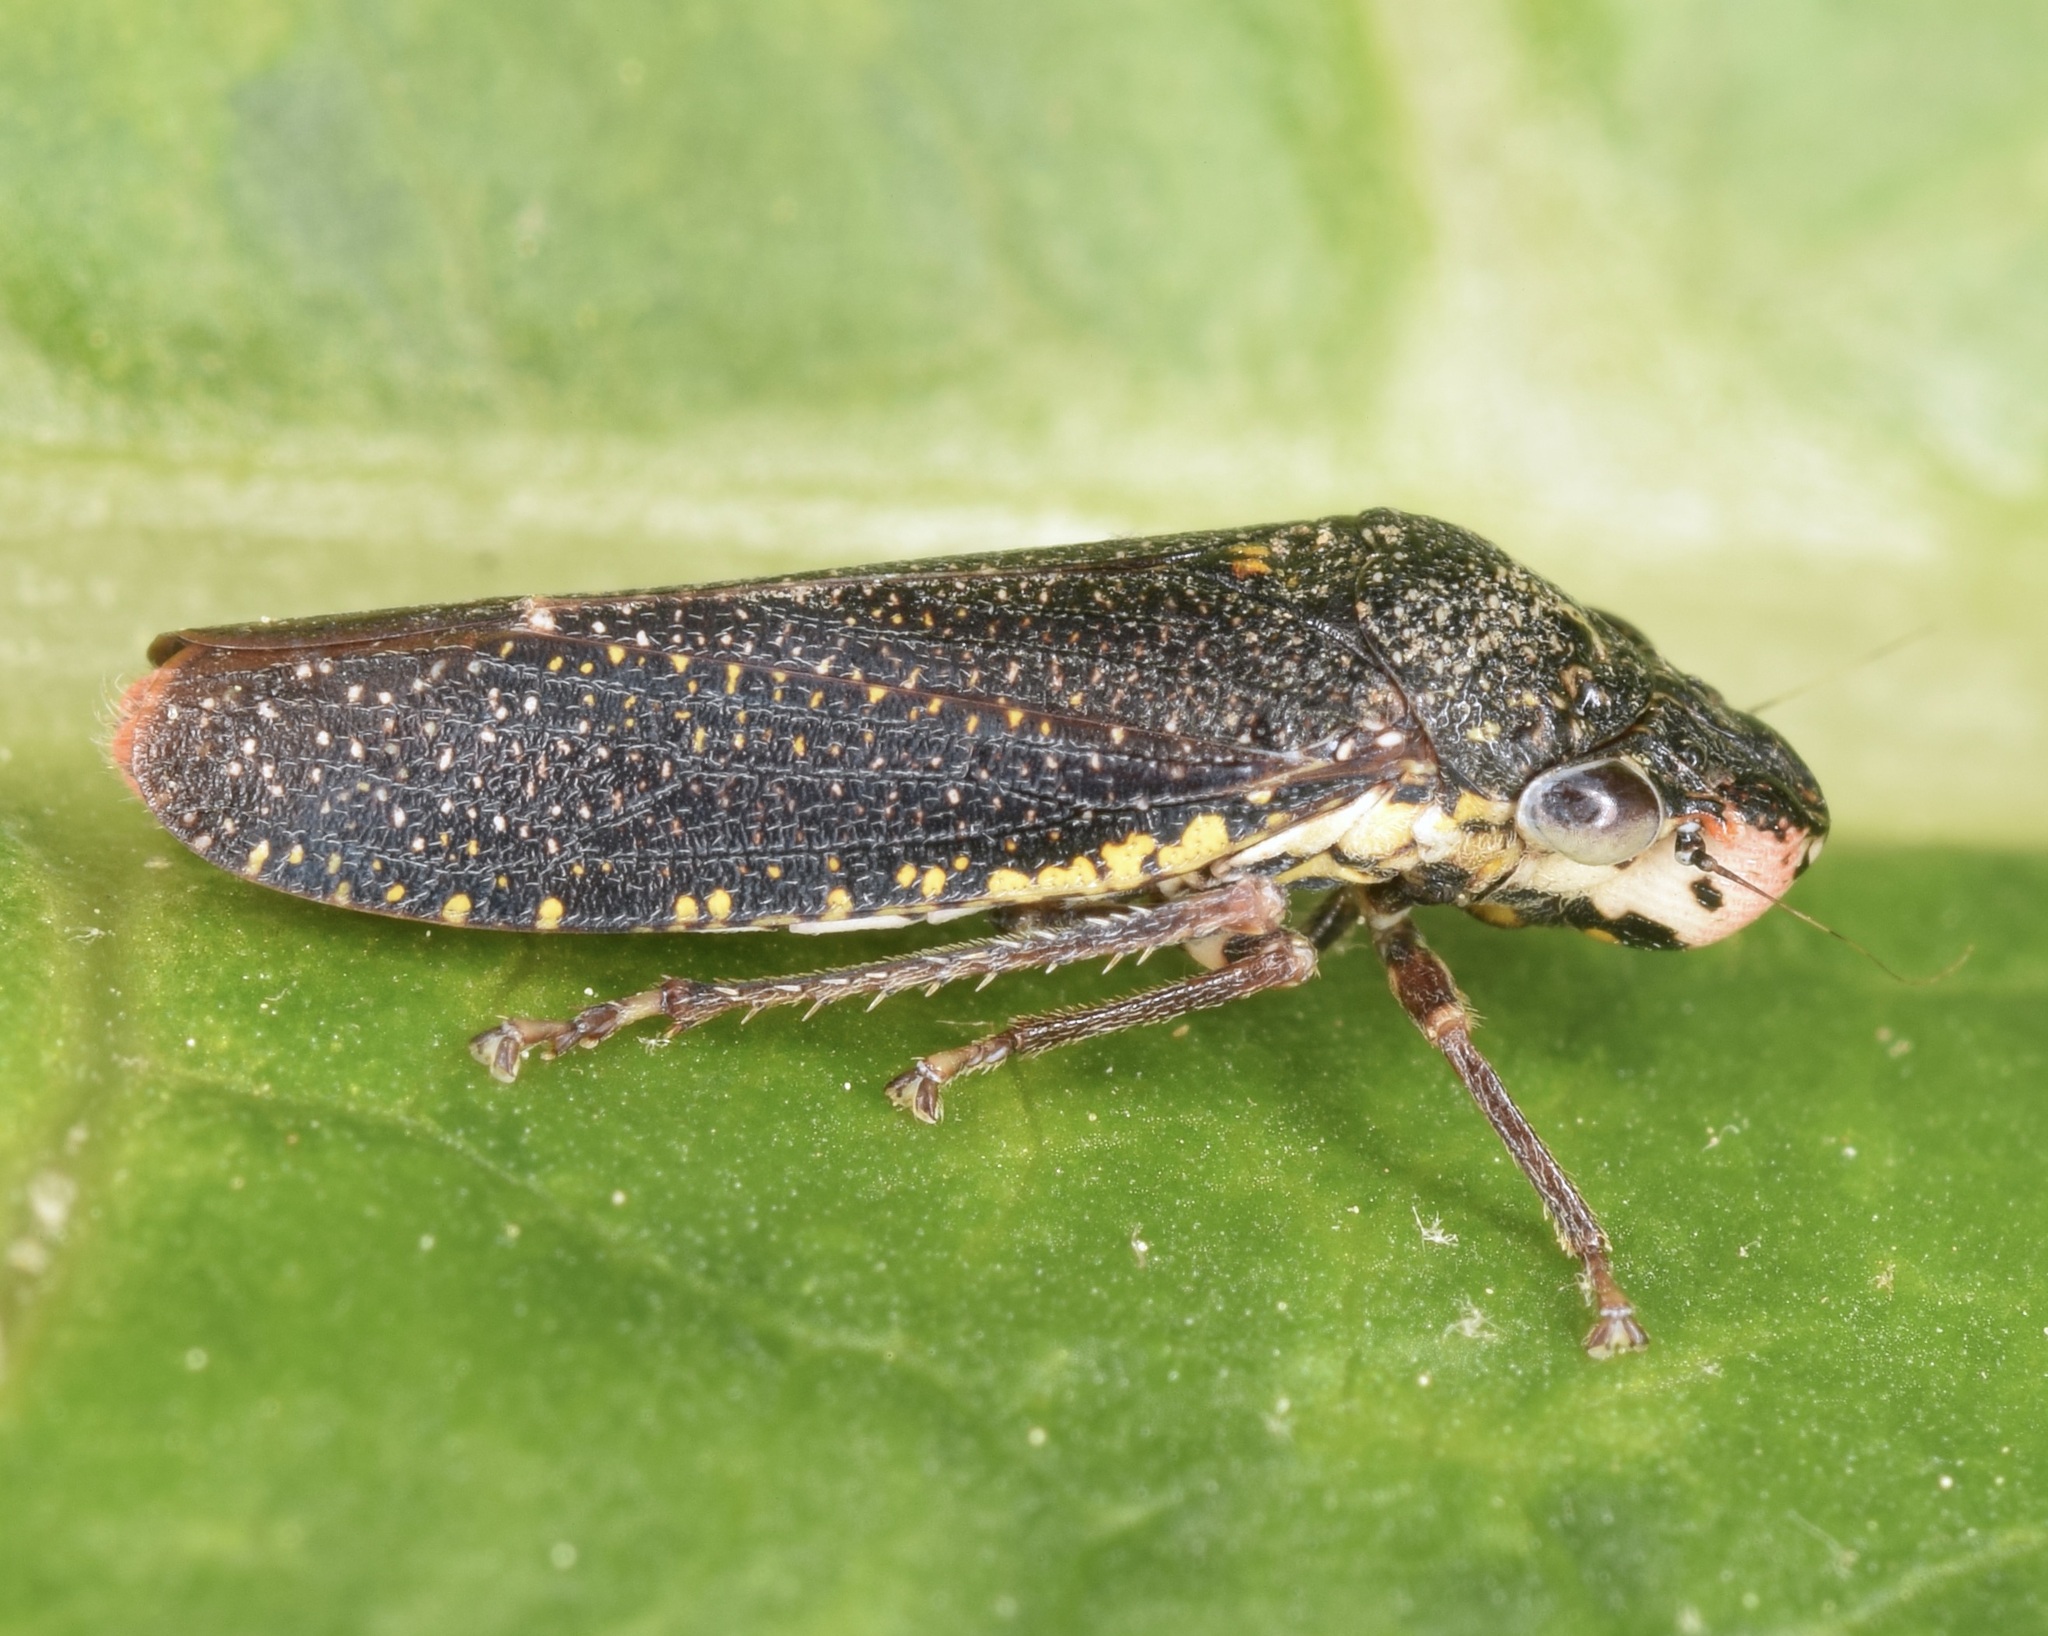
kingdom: Animalia
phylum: Arthropoda
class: Insecta
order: Hemiptera
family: Cicadellidae
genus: Paraulacizes
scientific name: Paraulacizes irrorata
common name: Speckled sharpshooter
